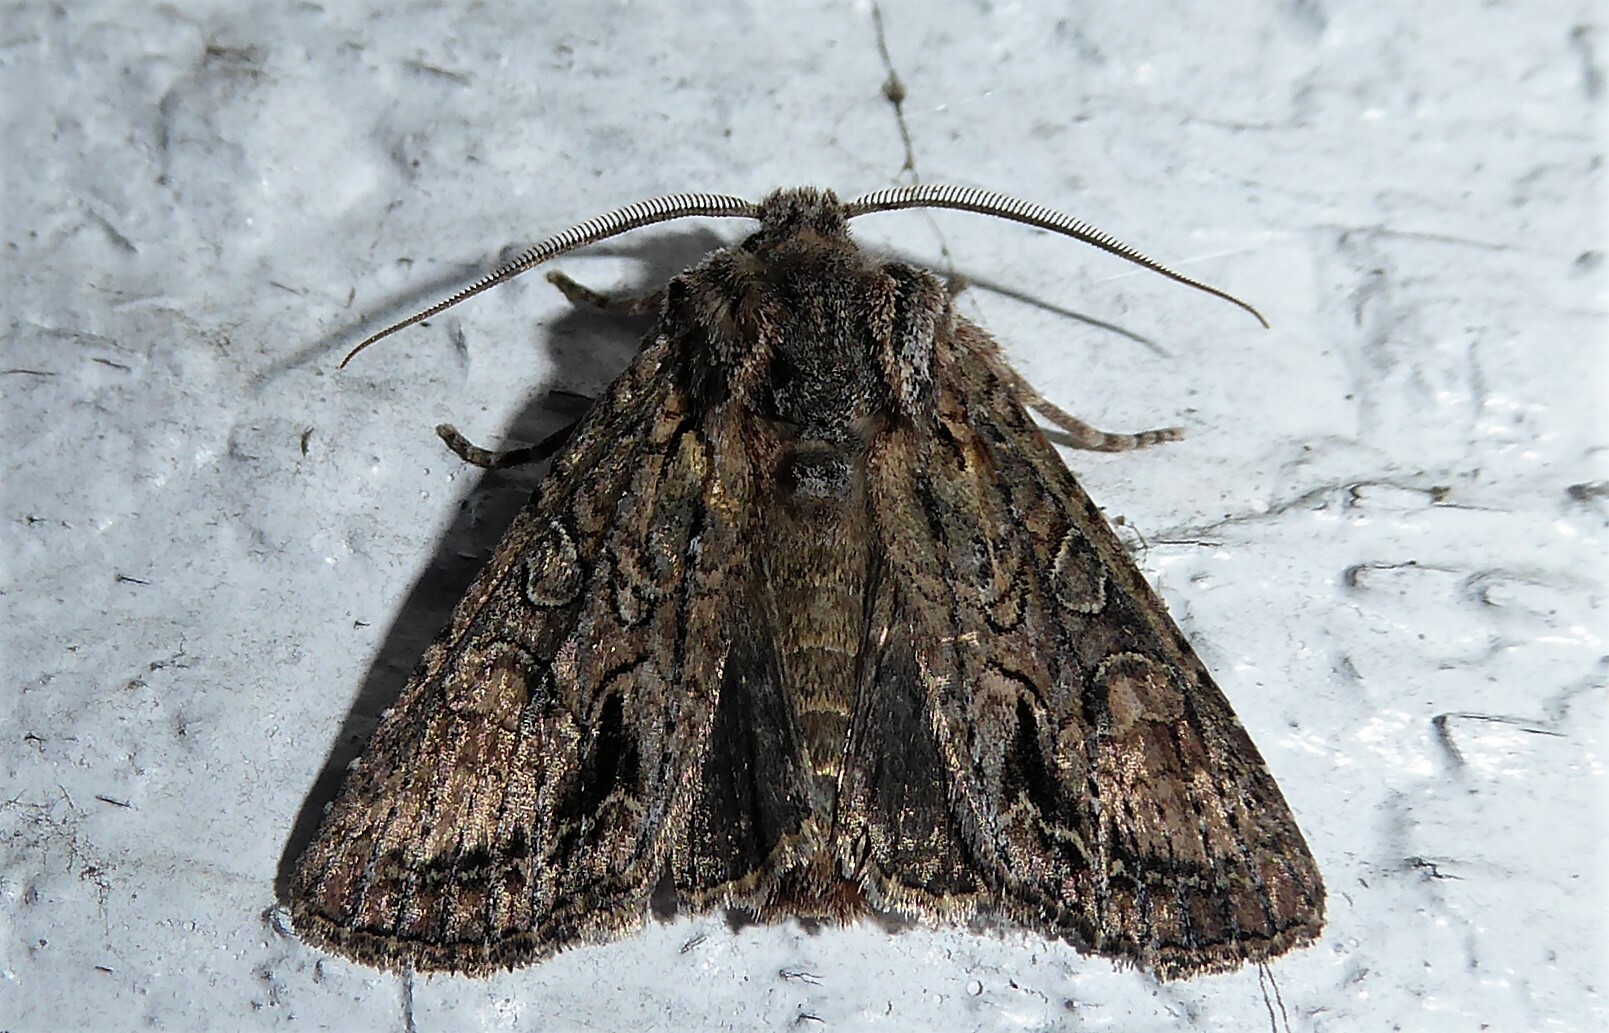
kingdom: Animalia
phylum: Arthropoda
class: Insecta
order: Lepidoptera
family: Noctuidae
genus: Ichneutica
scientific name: Ichneutica mutans
